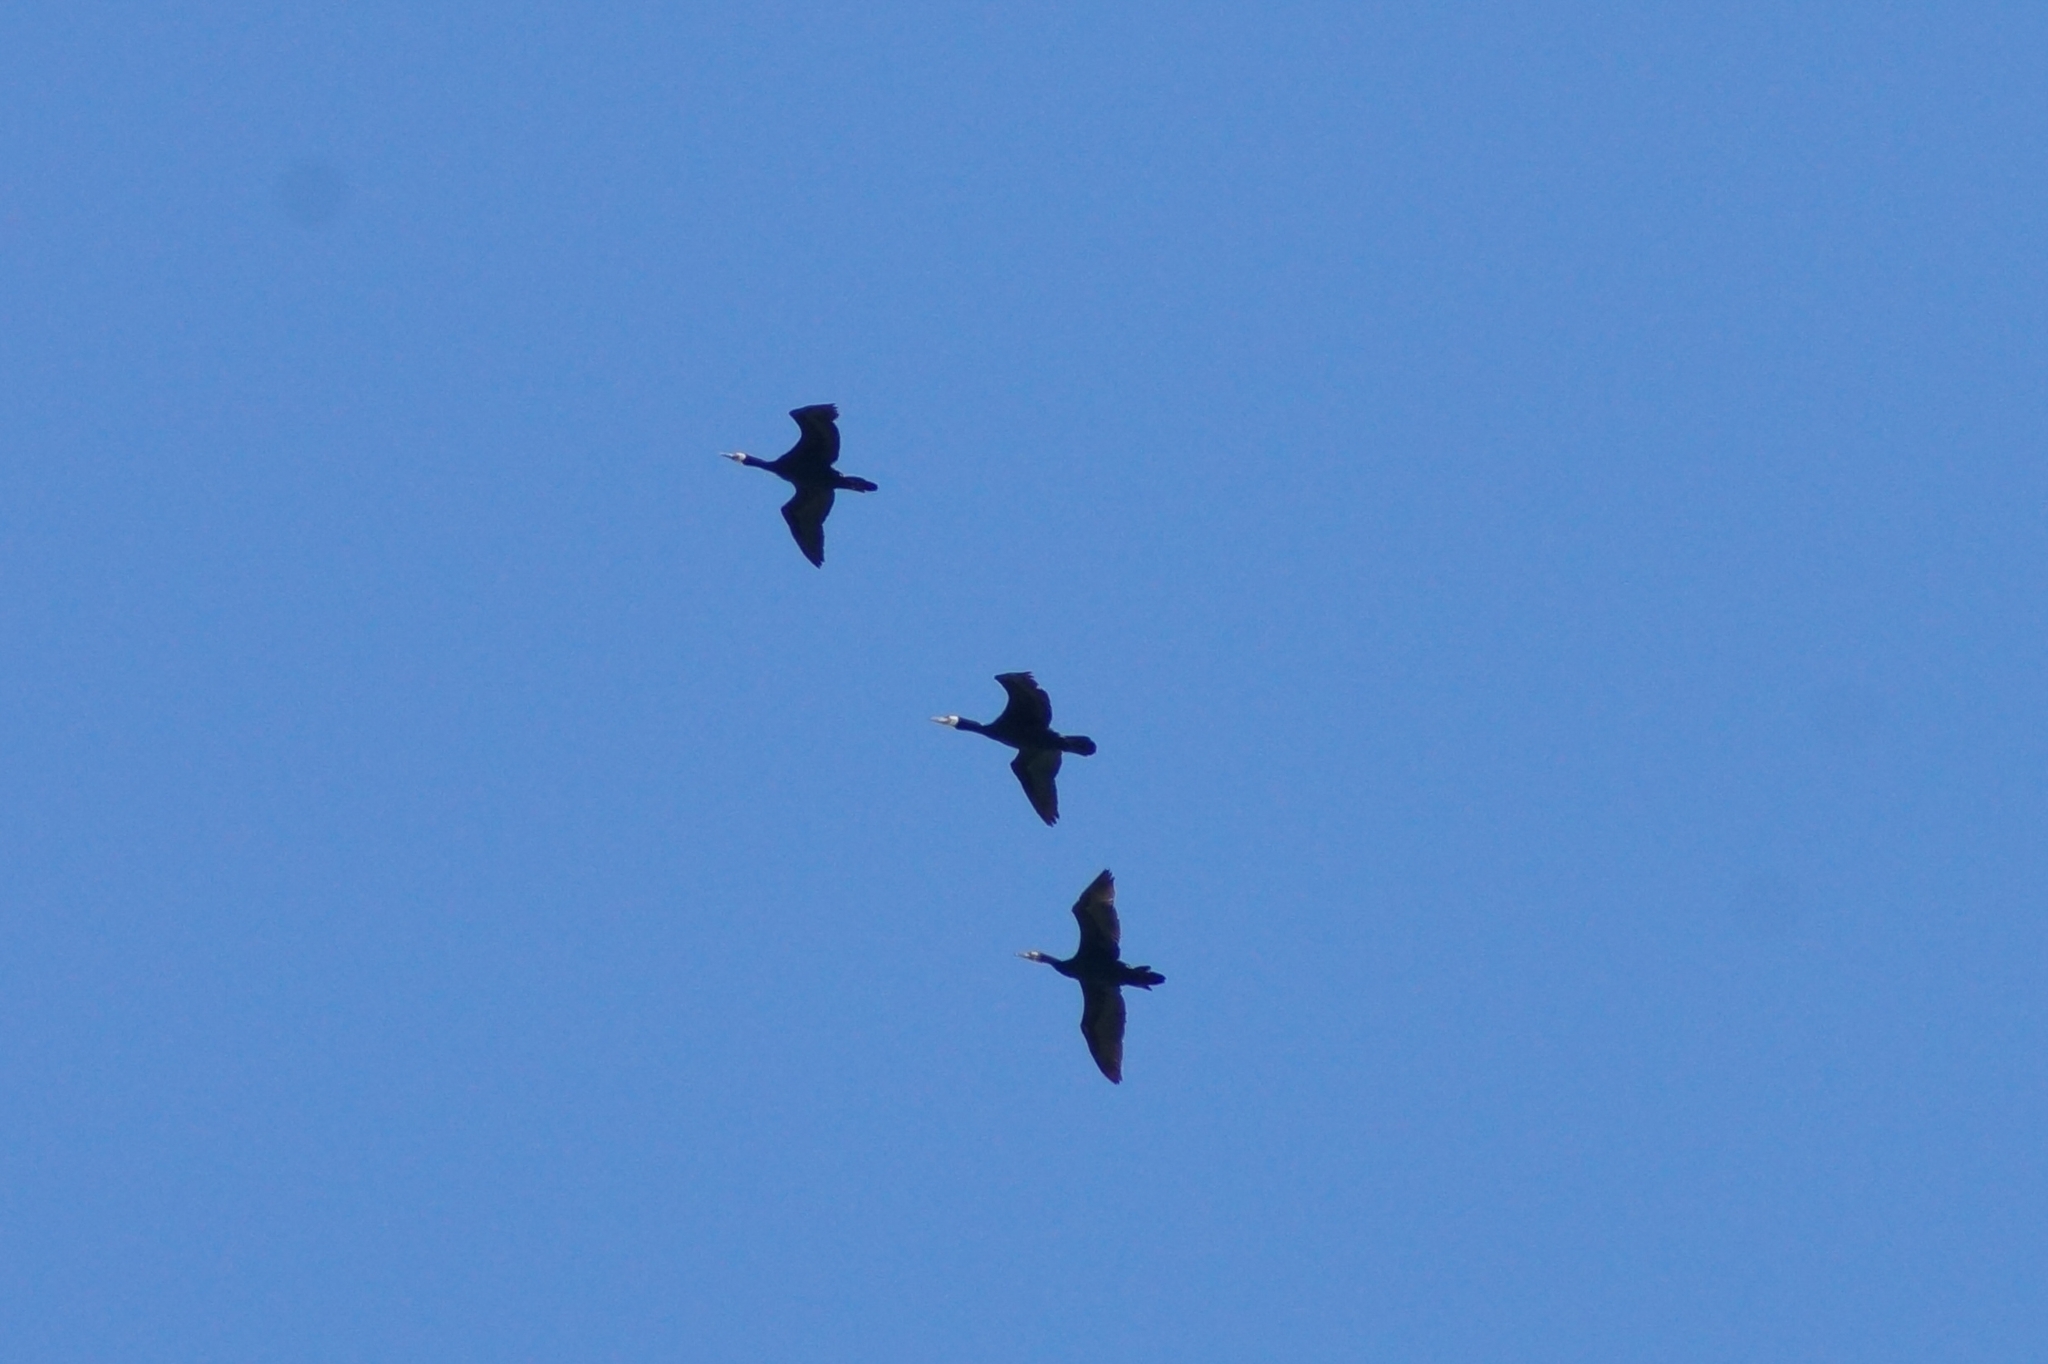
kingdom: Animalia
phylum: Chordata
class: Aves
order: Suliformes
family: Phalacrocoracidae
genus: Phalacrocorax
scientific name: Phalacrocorax carbo
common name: Great cormorant
